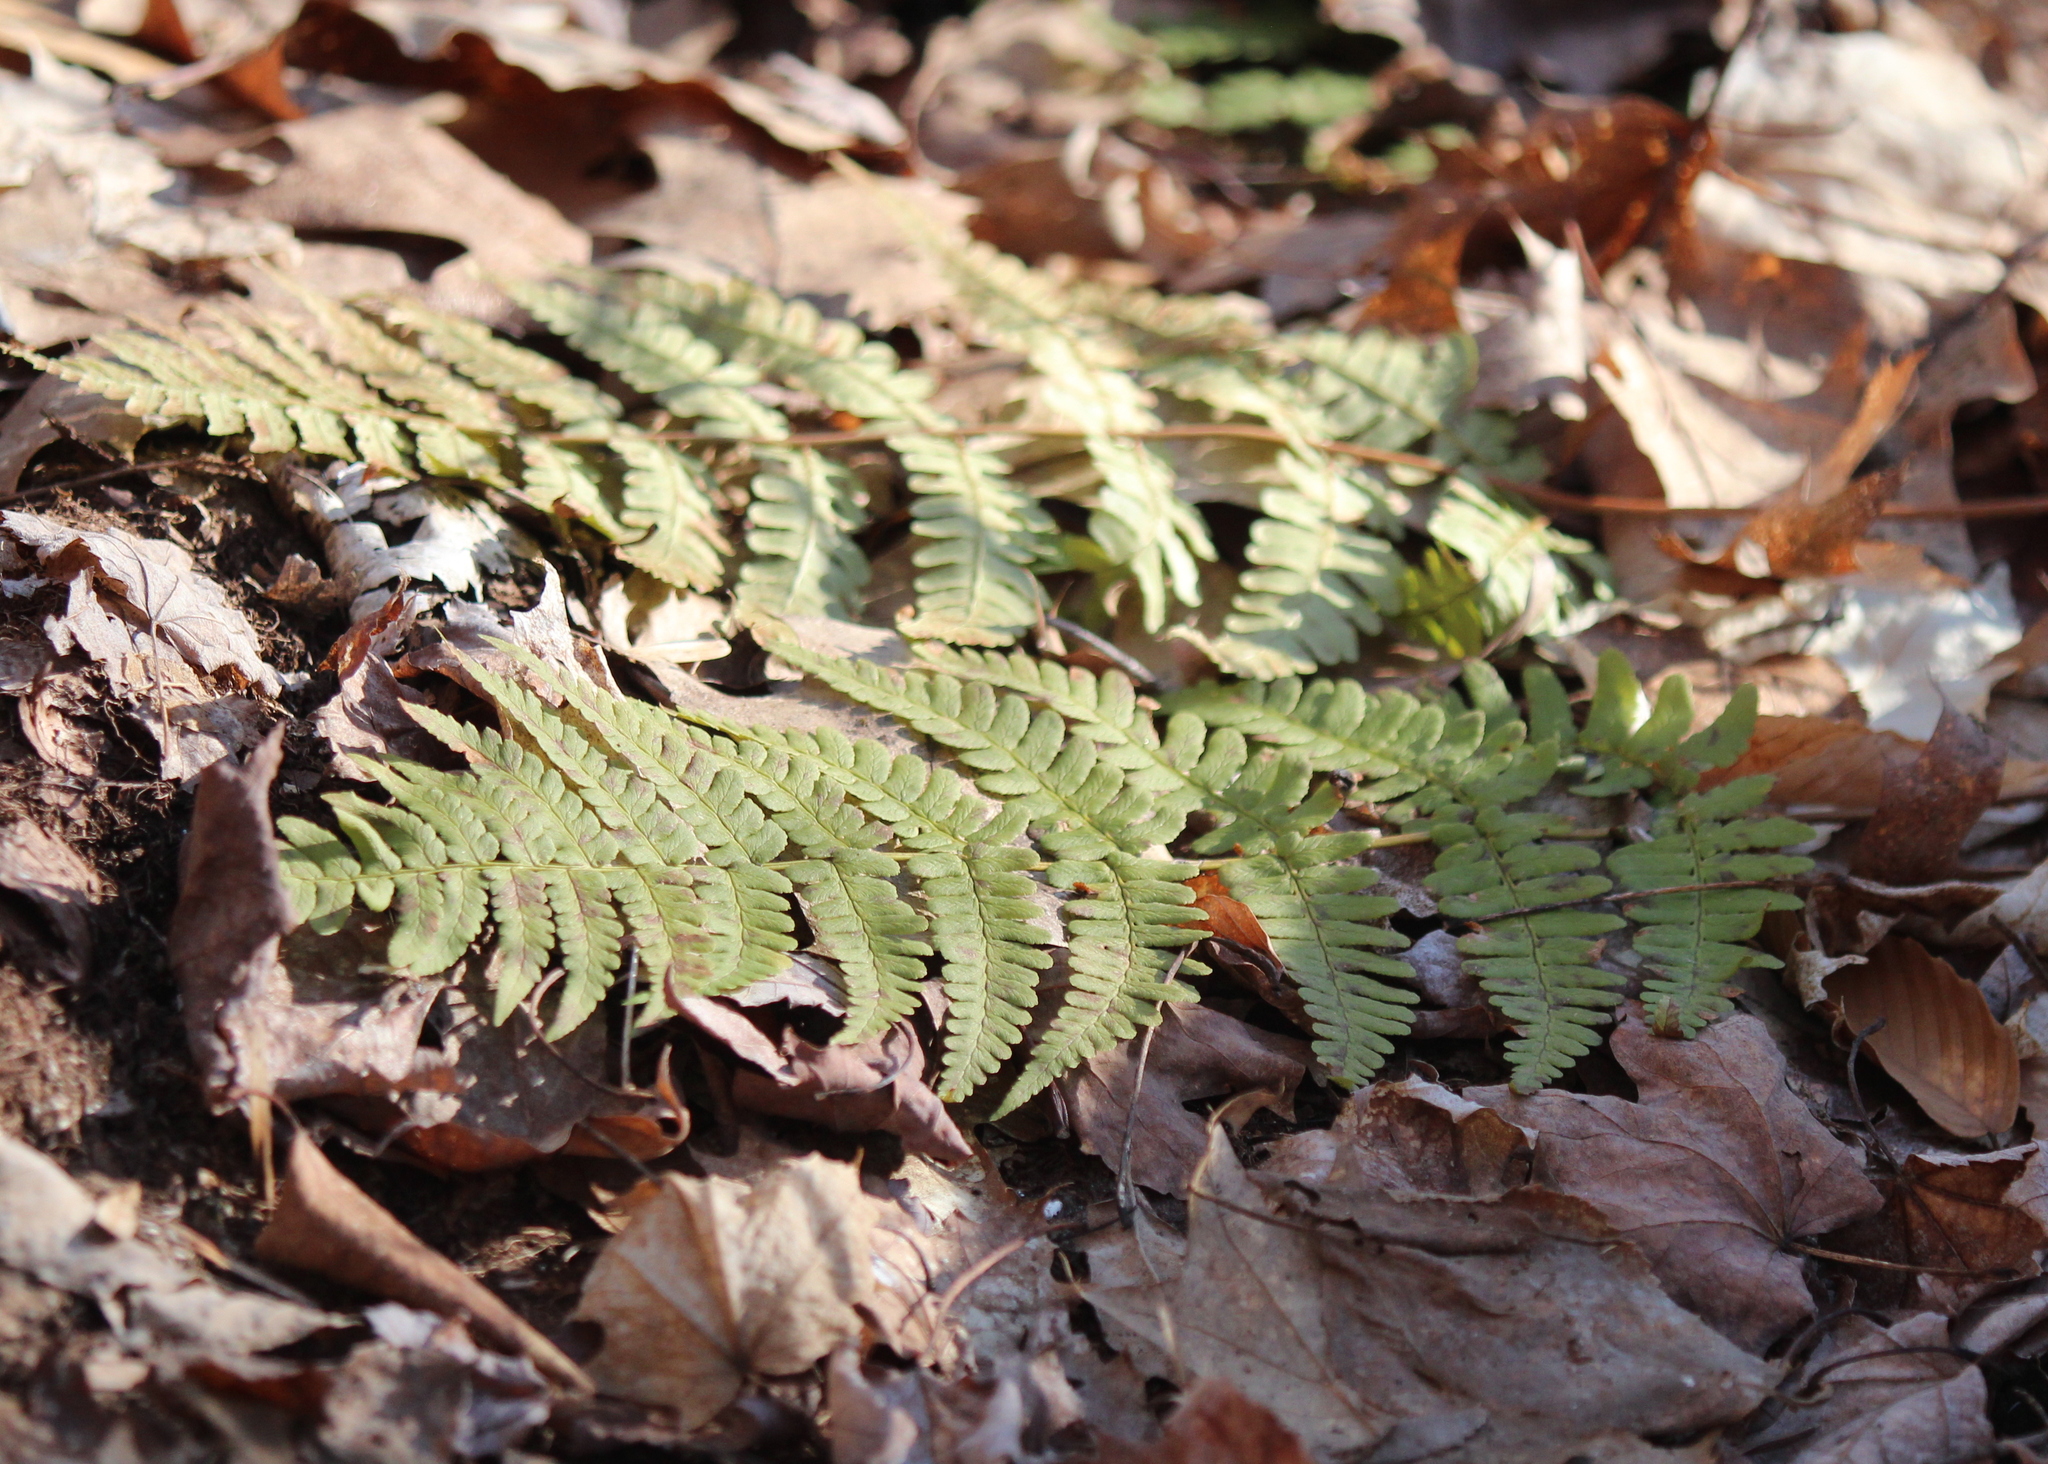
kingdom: Plantae
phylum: Tracheophyta
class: Polypodiopsida
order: Polypodiales
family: Dryopteridaceae
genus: Dryopteris
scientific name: Dryopteris marginalis
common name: Marginal wood fern
